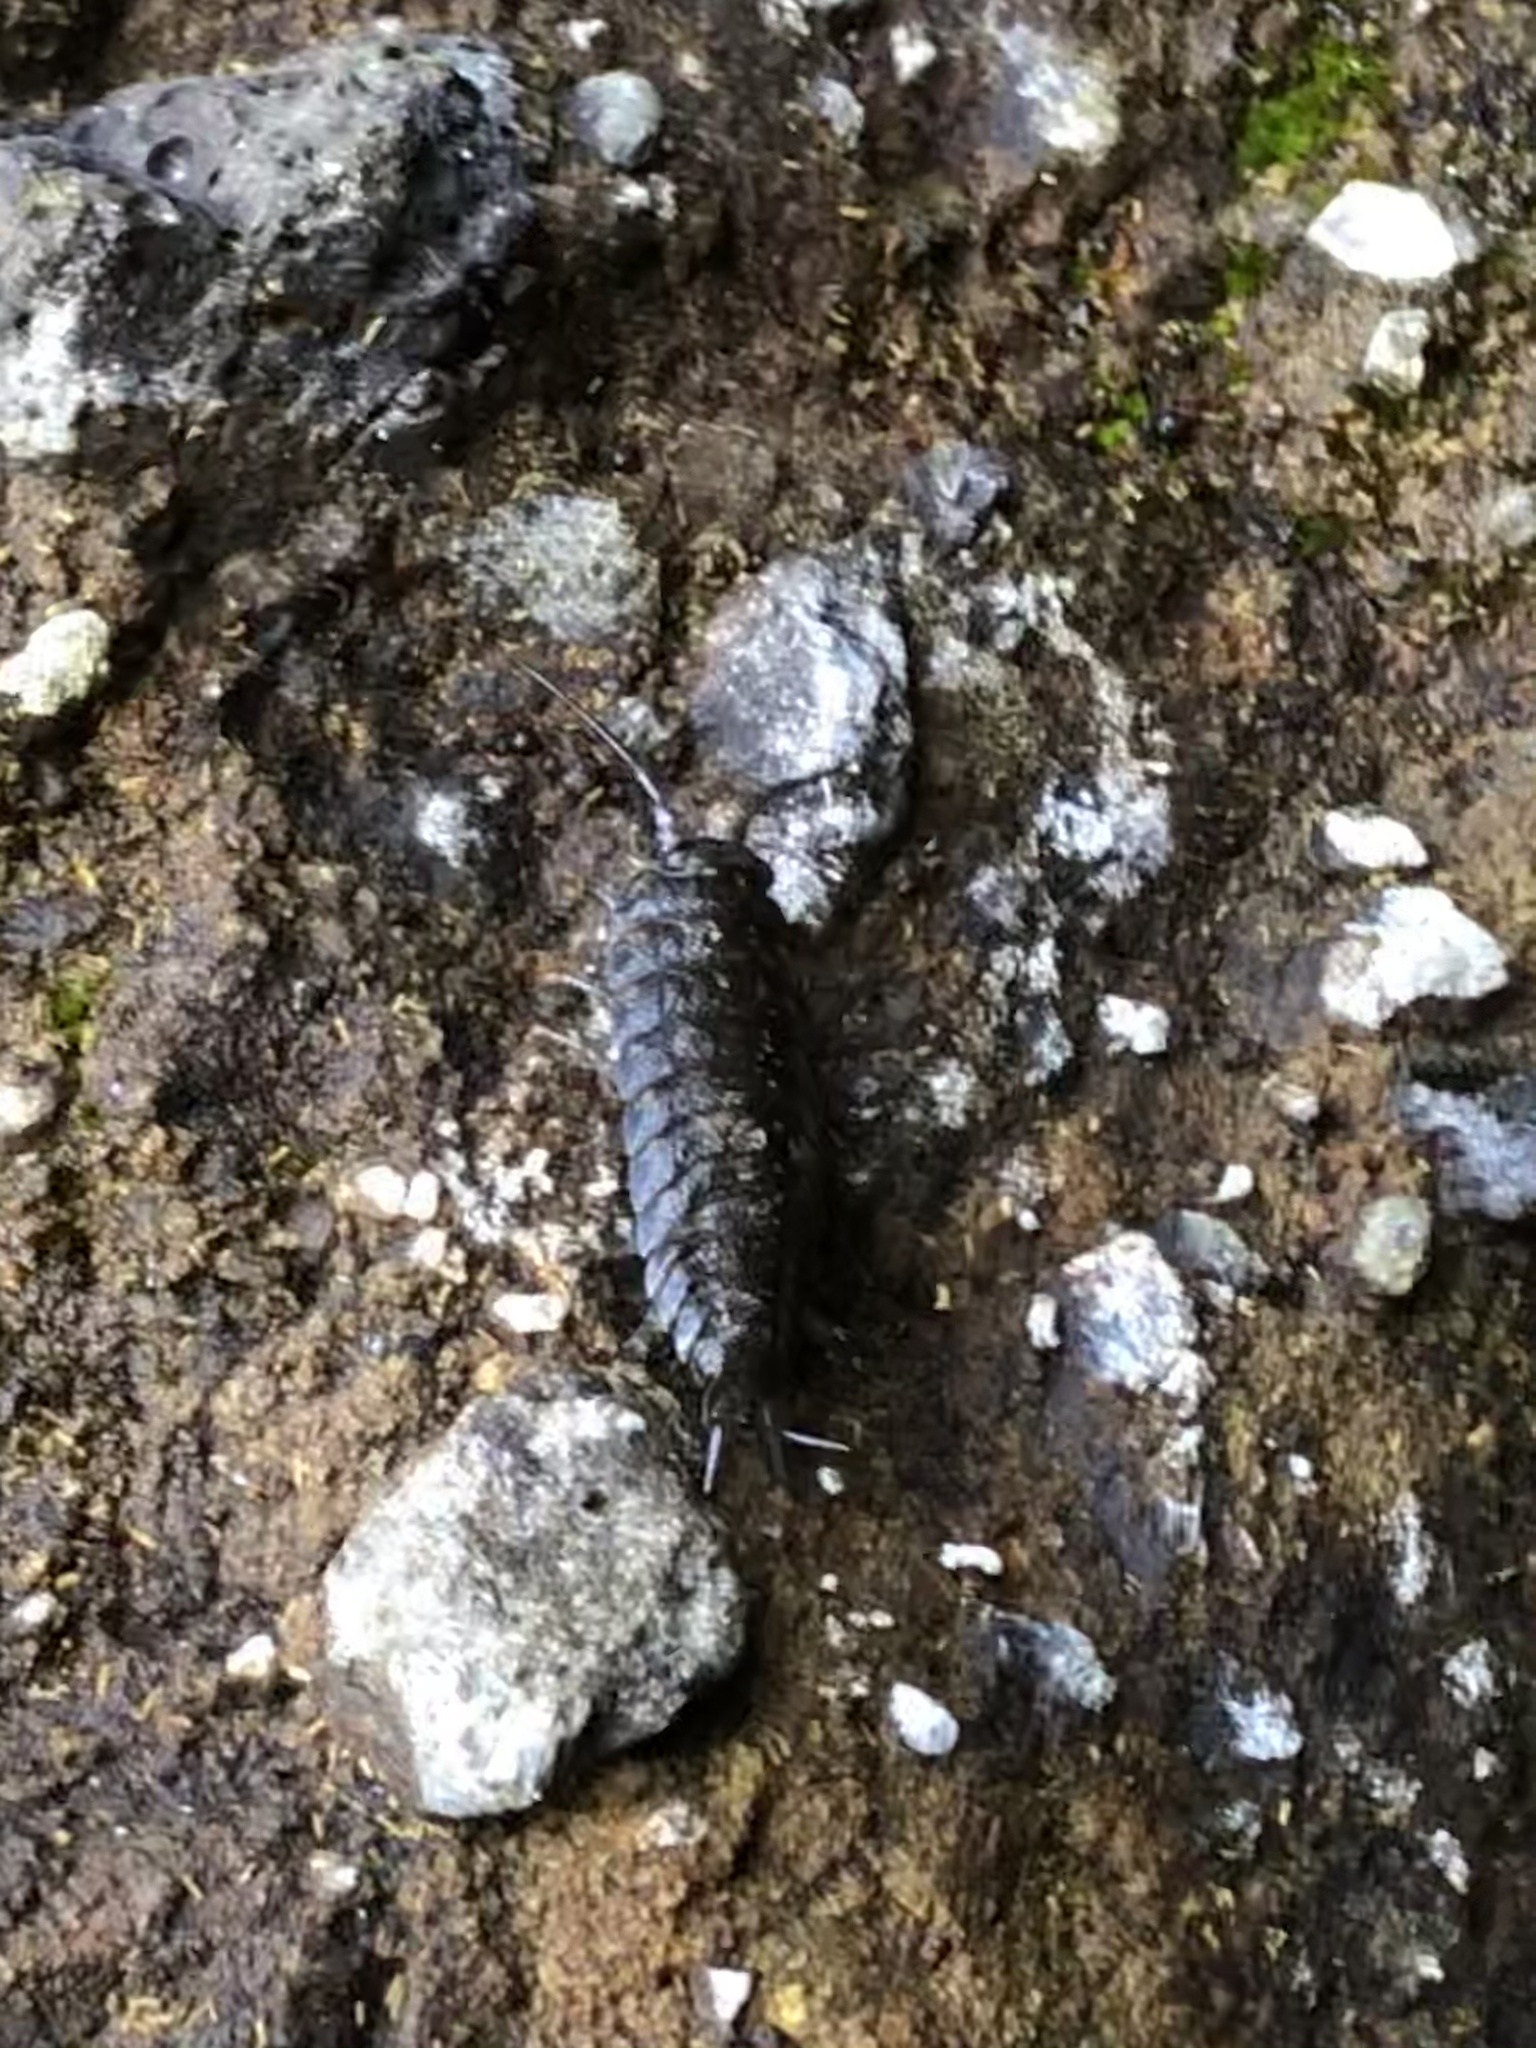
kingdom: Animalia
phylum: Arthropoda
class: Malacostraca
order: Isopoda
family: Ligiidae
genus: Ligia
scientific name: Ligia pallasii
